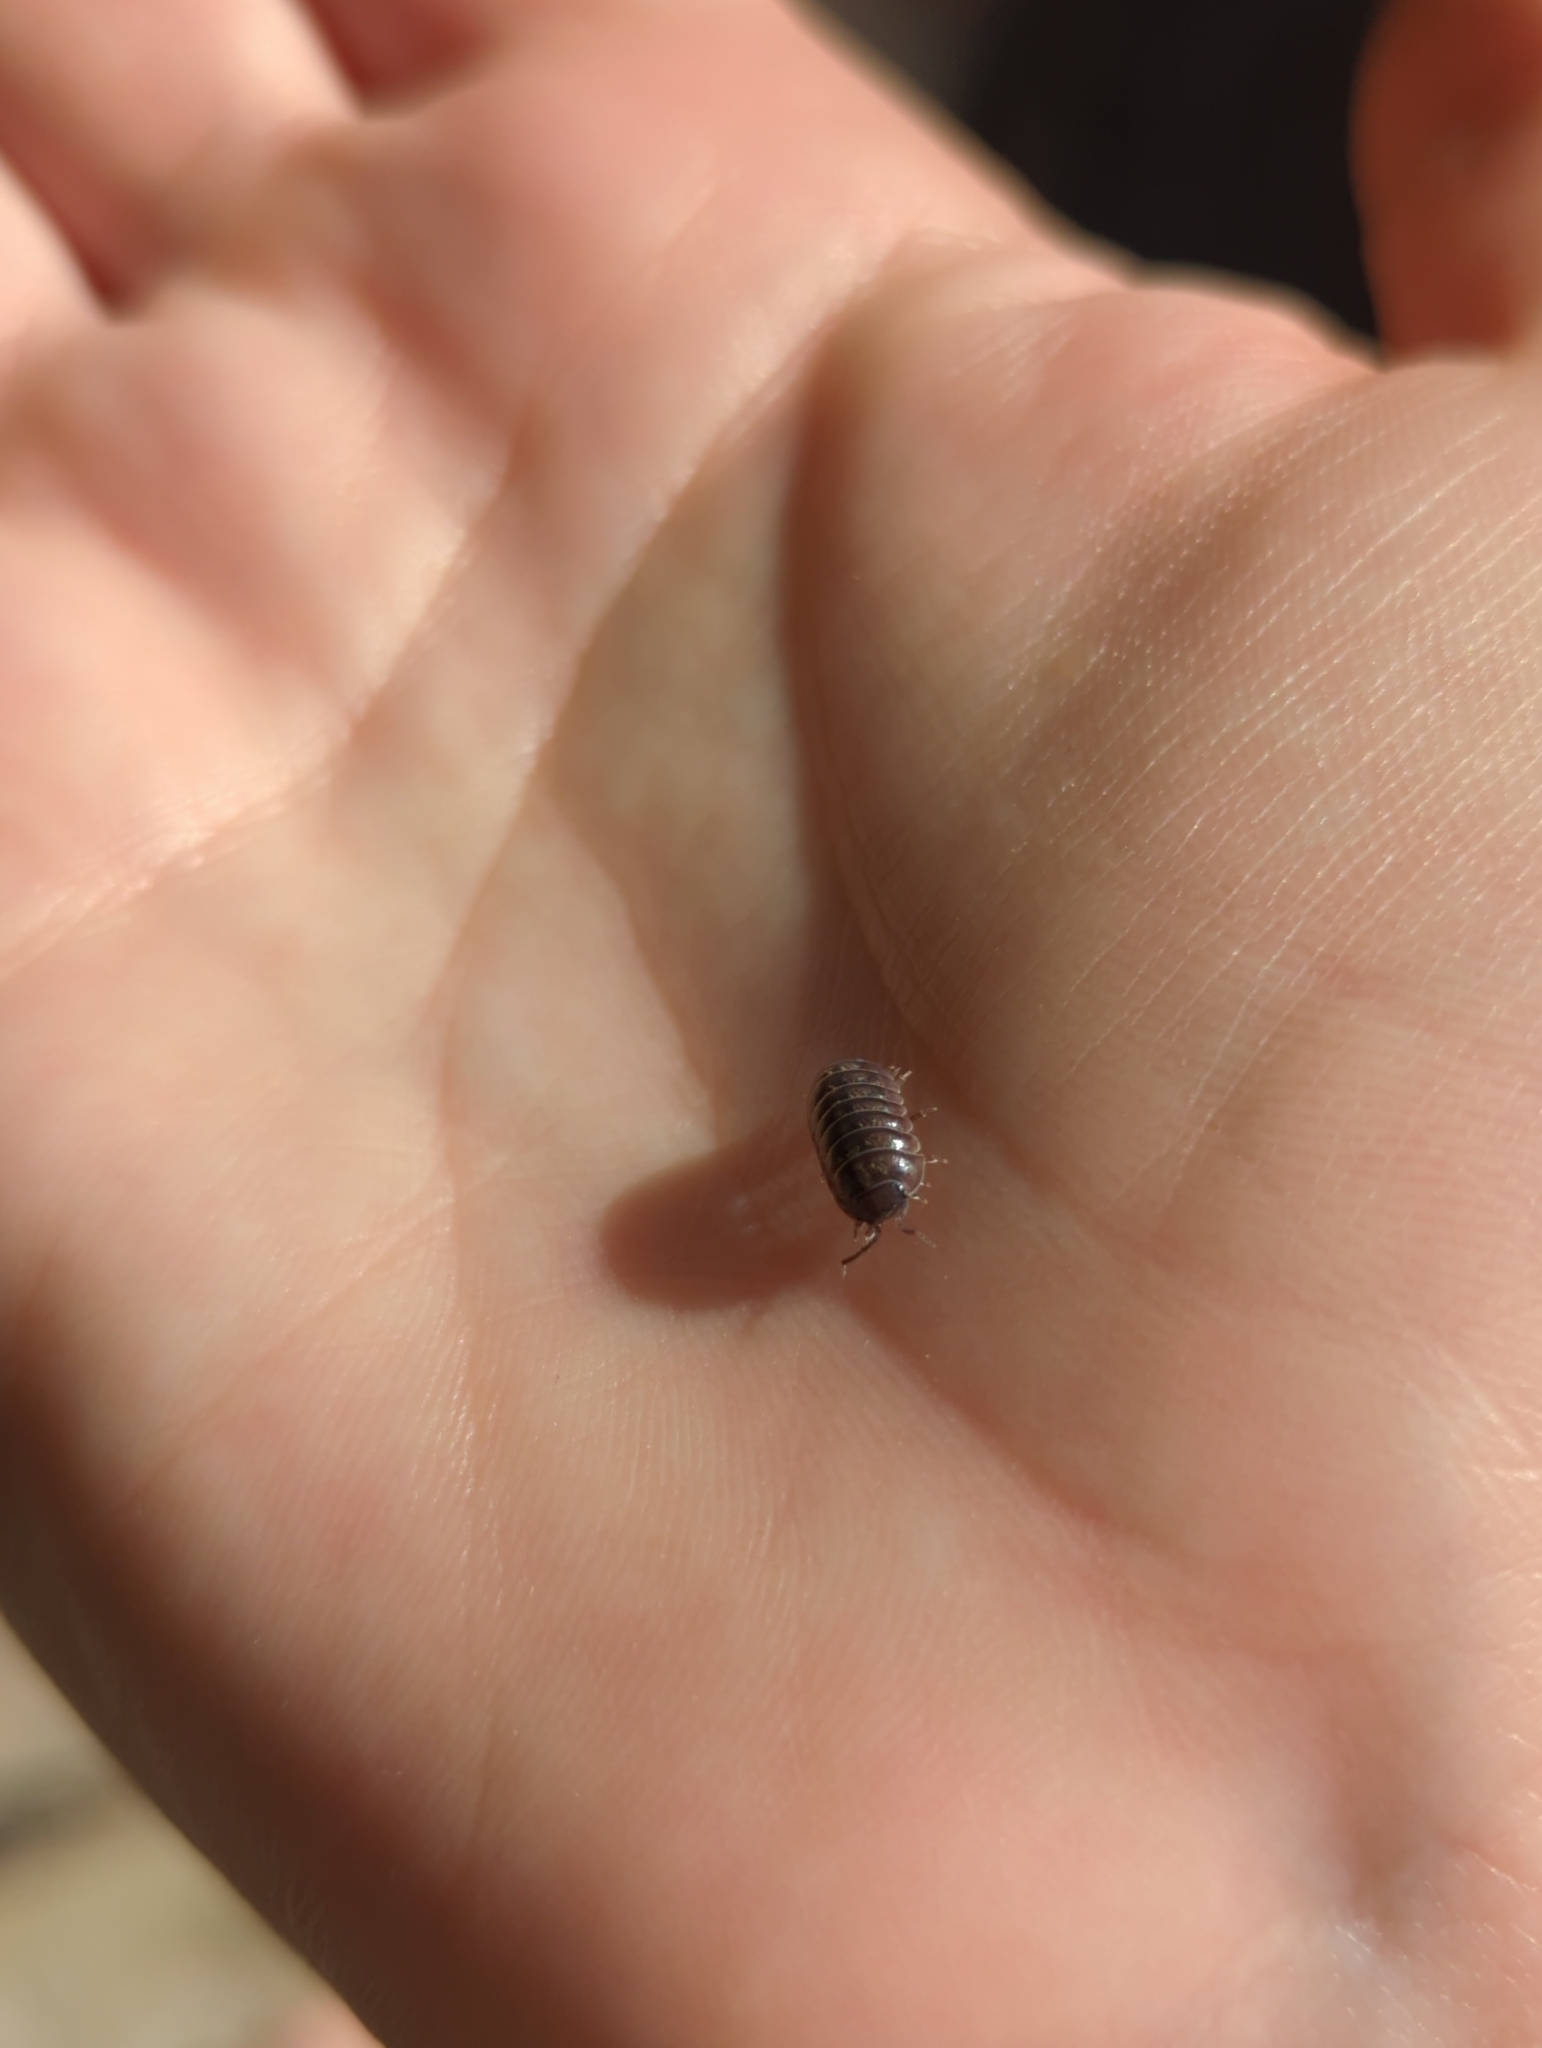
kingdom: Animalia
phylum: Arthropoda
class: Malacostraca
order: Isopoda
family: Armadillidiidae
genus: Armadillidium
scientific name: Armadillidium vulgare
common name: Common pill woodlouse
